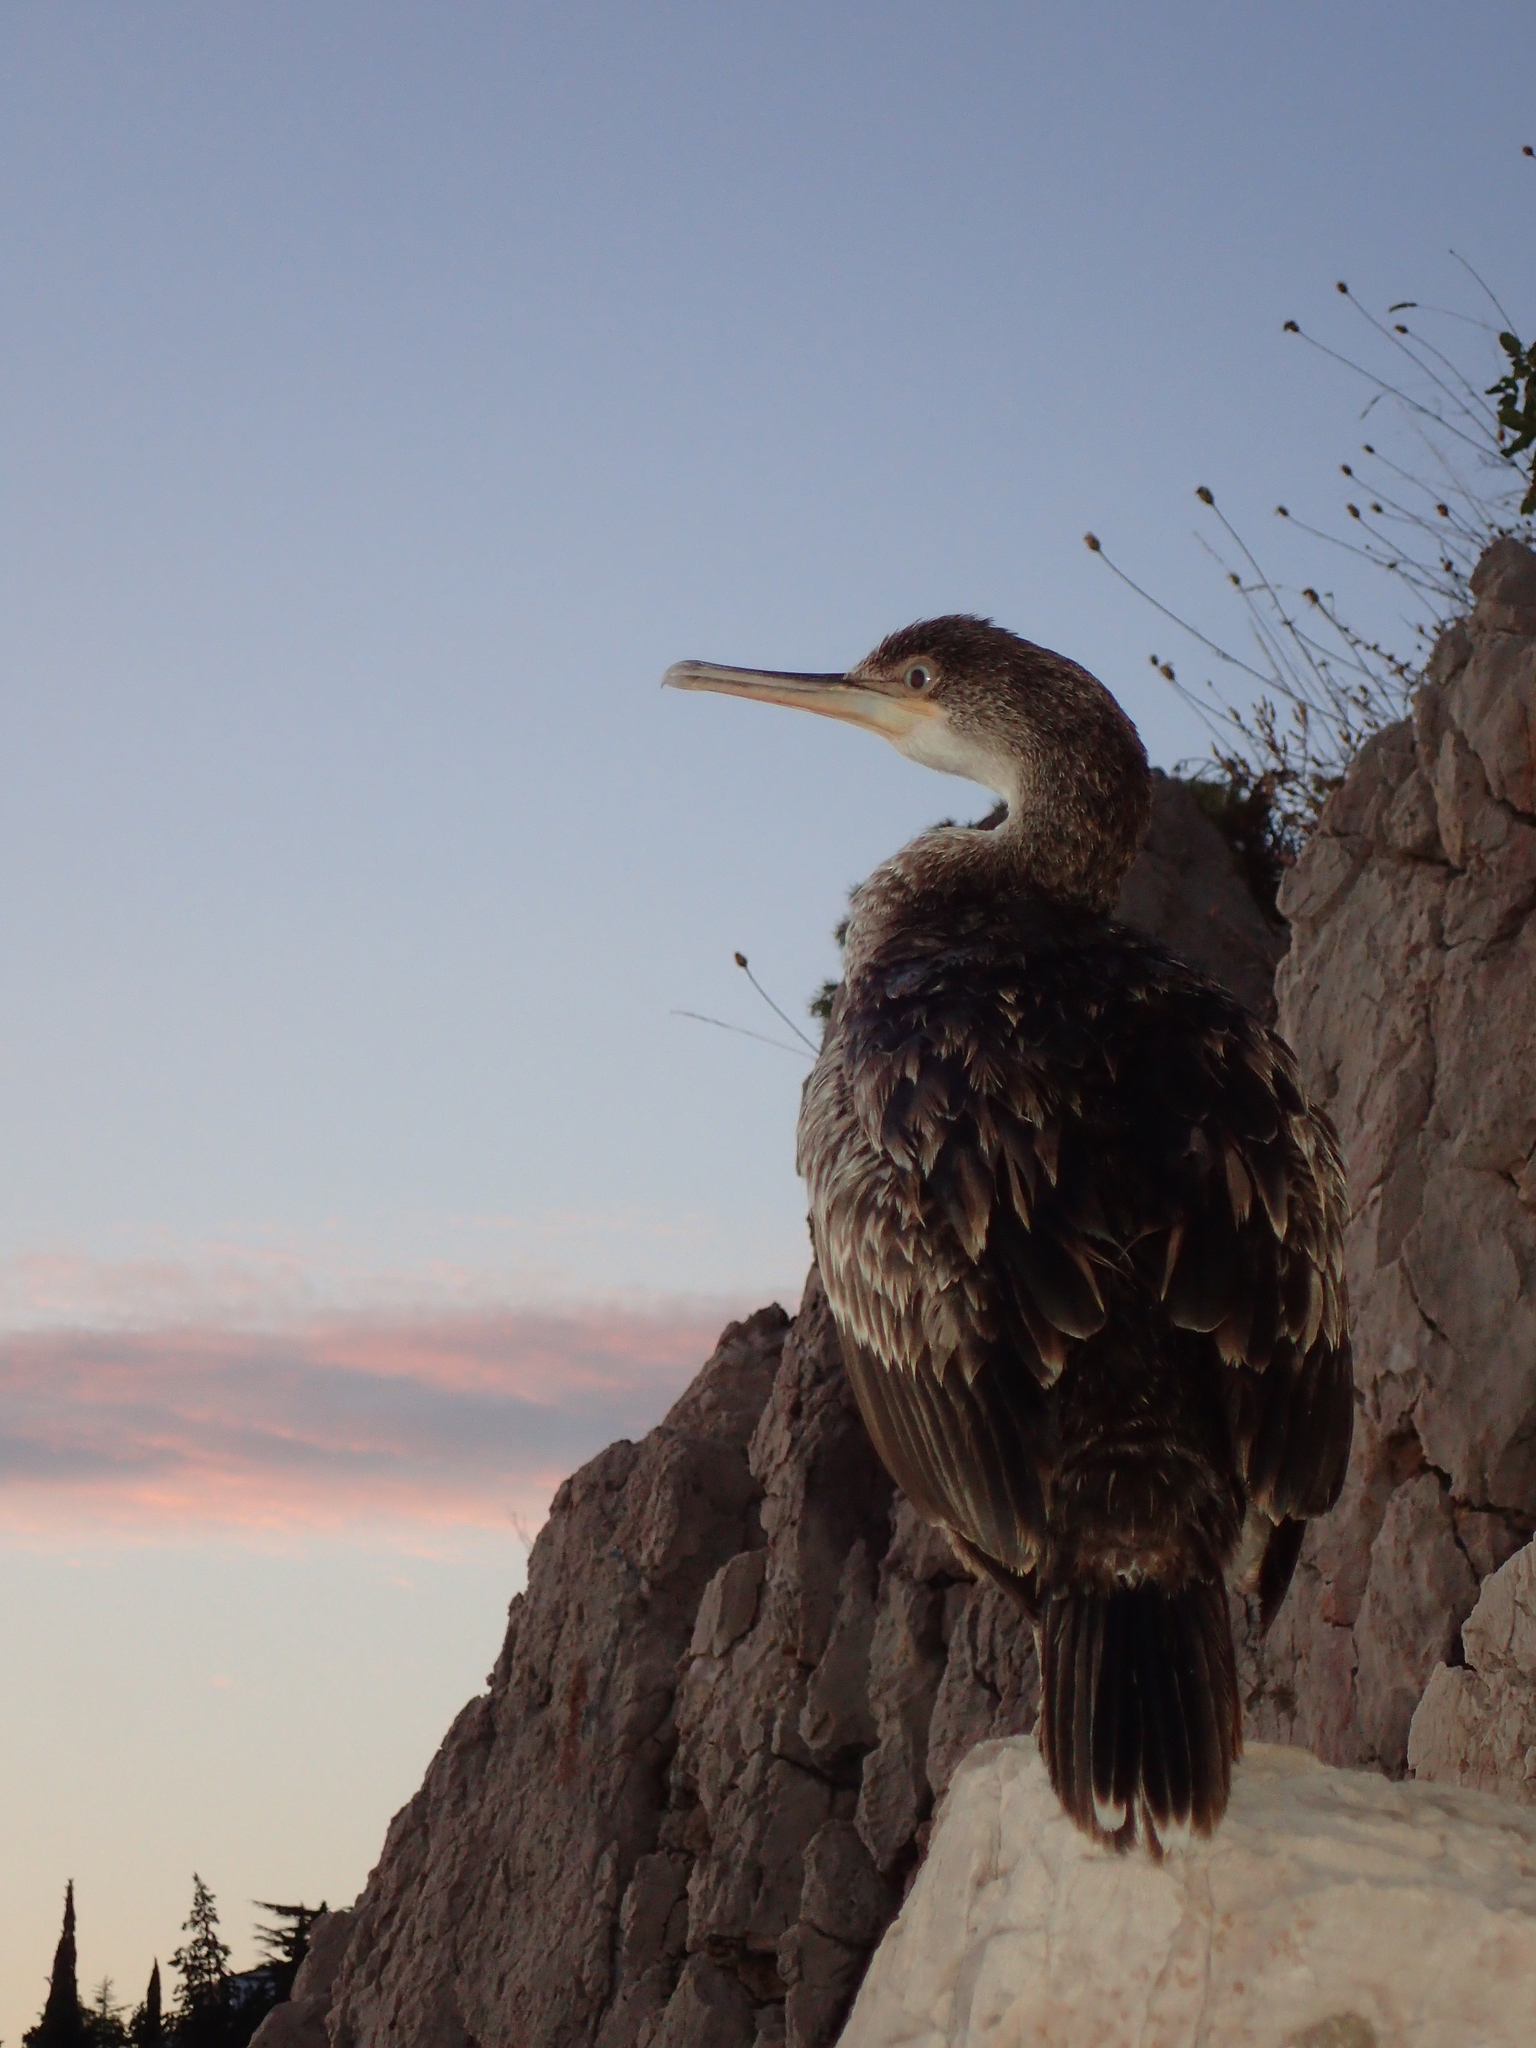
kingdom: Animalia
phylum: Chordata
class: Aves
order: Suliformes
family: Phalacrocoracidae
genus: Phalacrocorax
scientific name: Phalacrocorax aristotelis
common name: European shag
